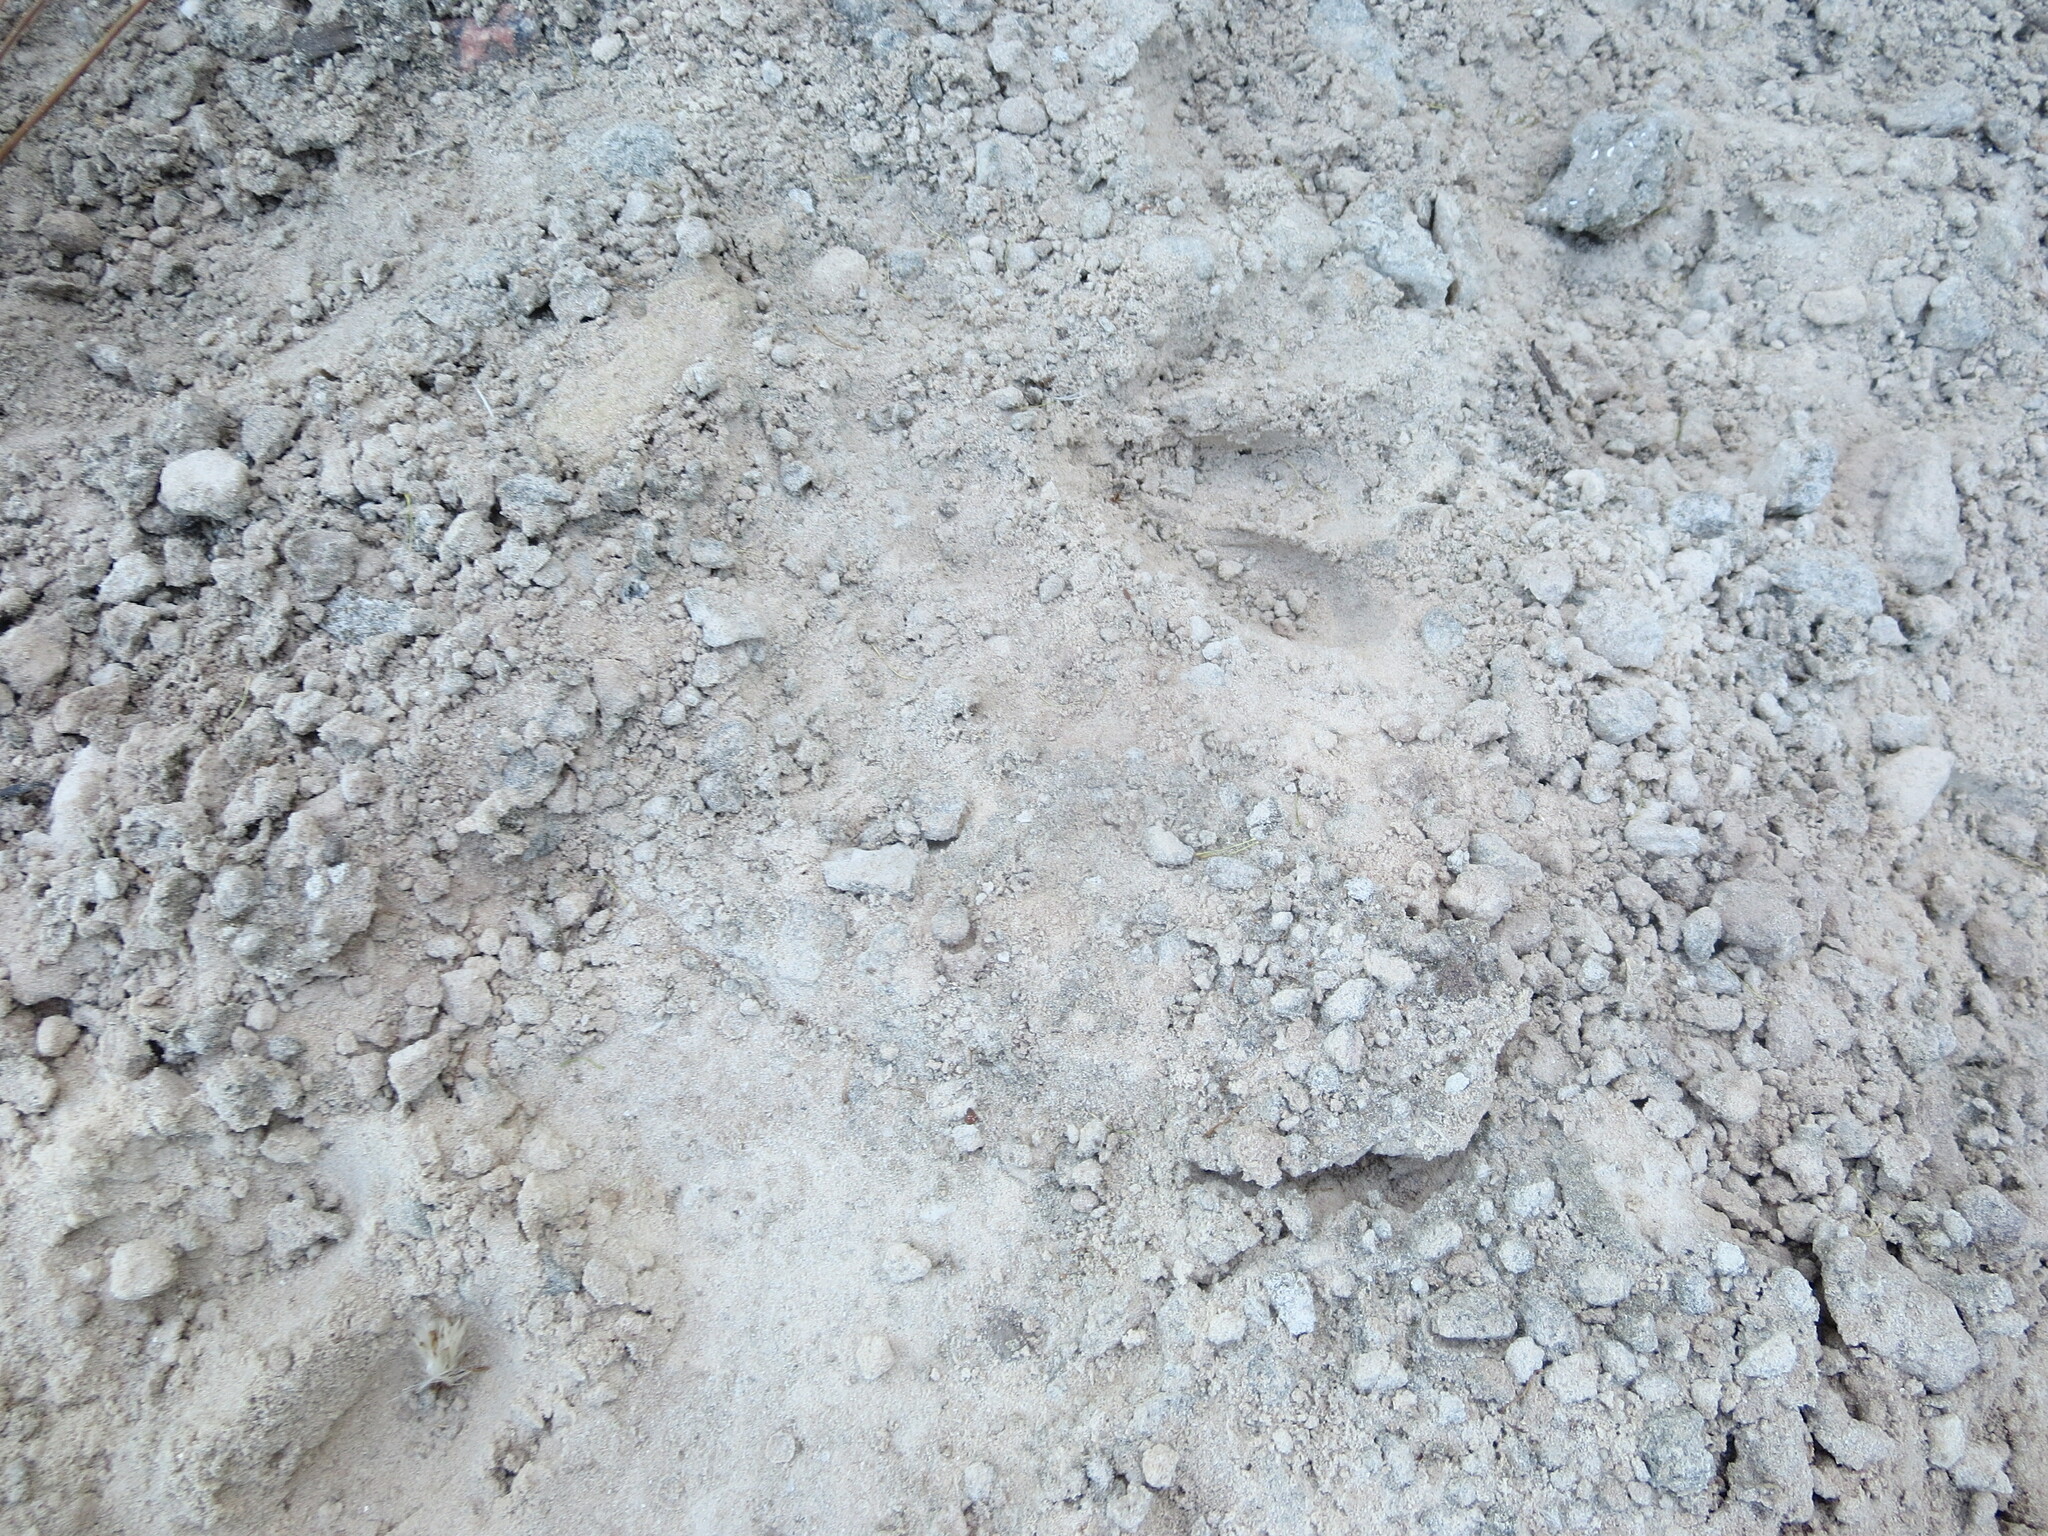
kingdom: Animalia
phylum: Chordata
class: Mammalia
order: Artiodactyla
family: Cervidae
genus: Odocoileus
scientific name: Odocoileus virginianus
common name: White-tailed deer
